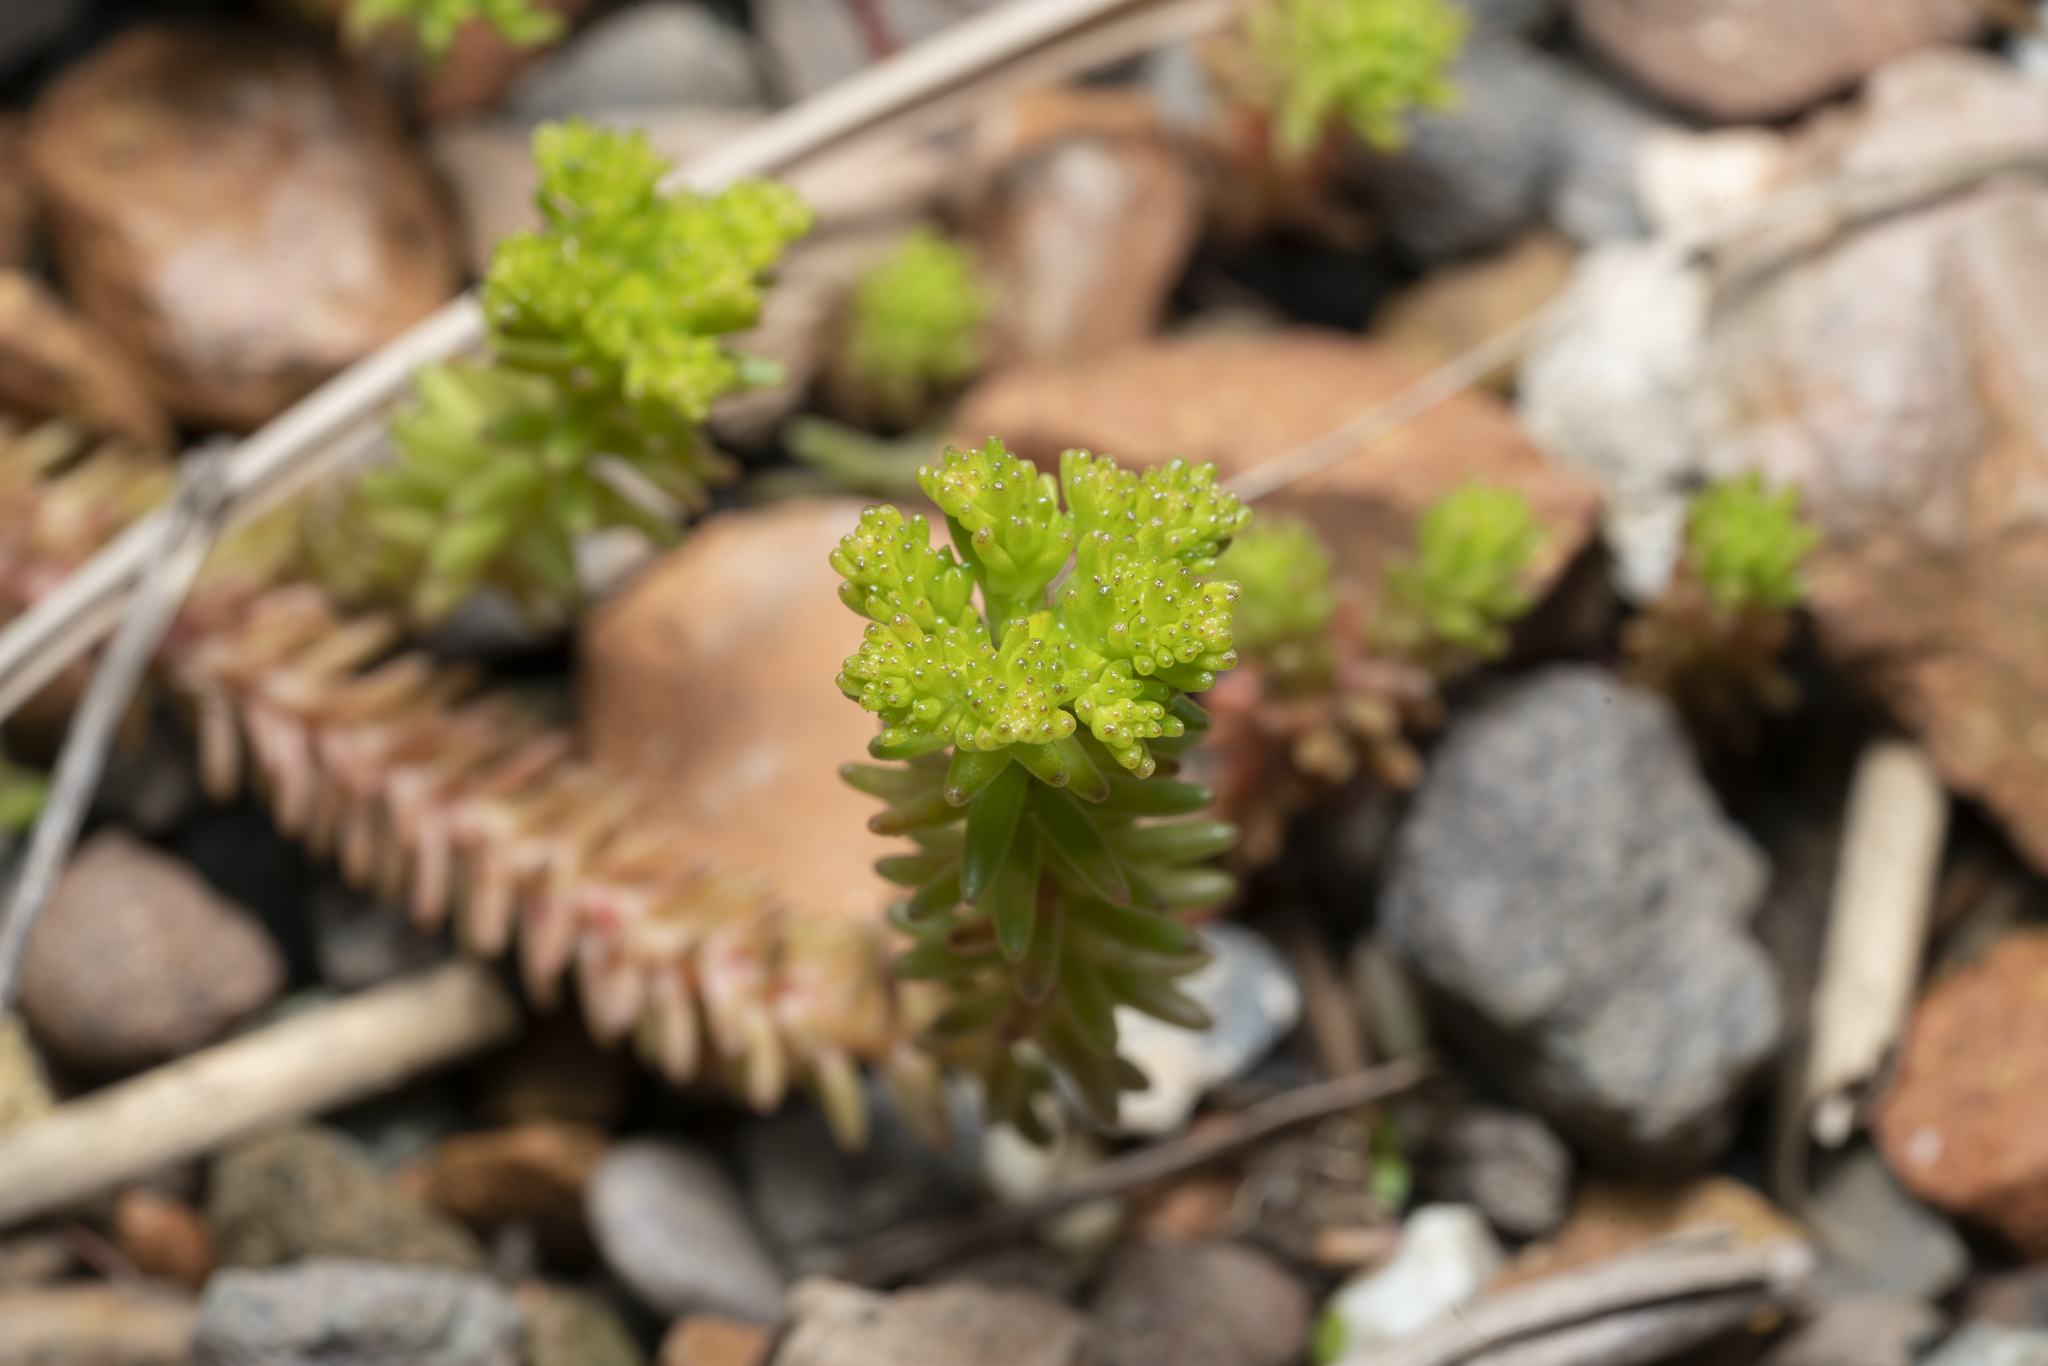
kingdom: Plantae
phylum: Tracheophyta
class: Magnoliopsida
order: Saxifragales
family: Crassulaceae
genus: Sedum
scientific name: Sedum sexangulare
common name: Tasteless stonecrop
